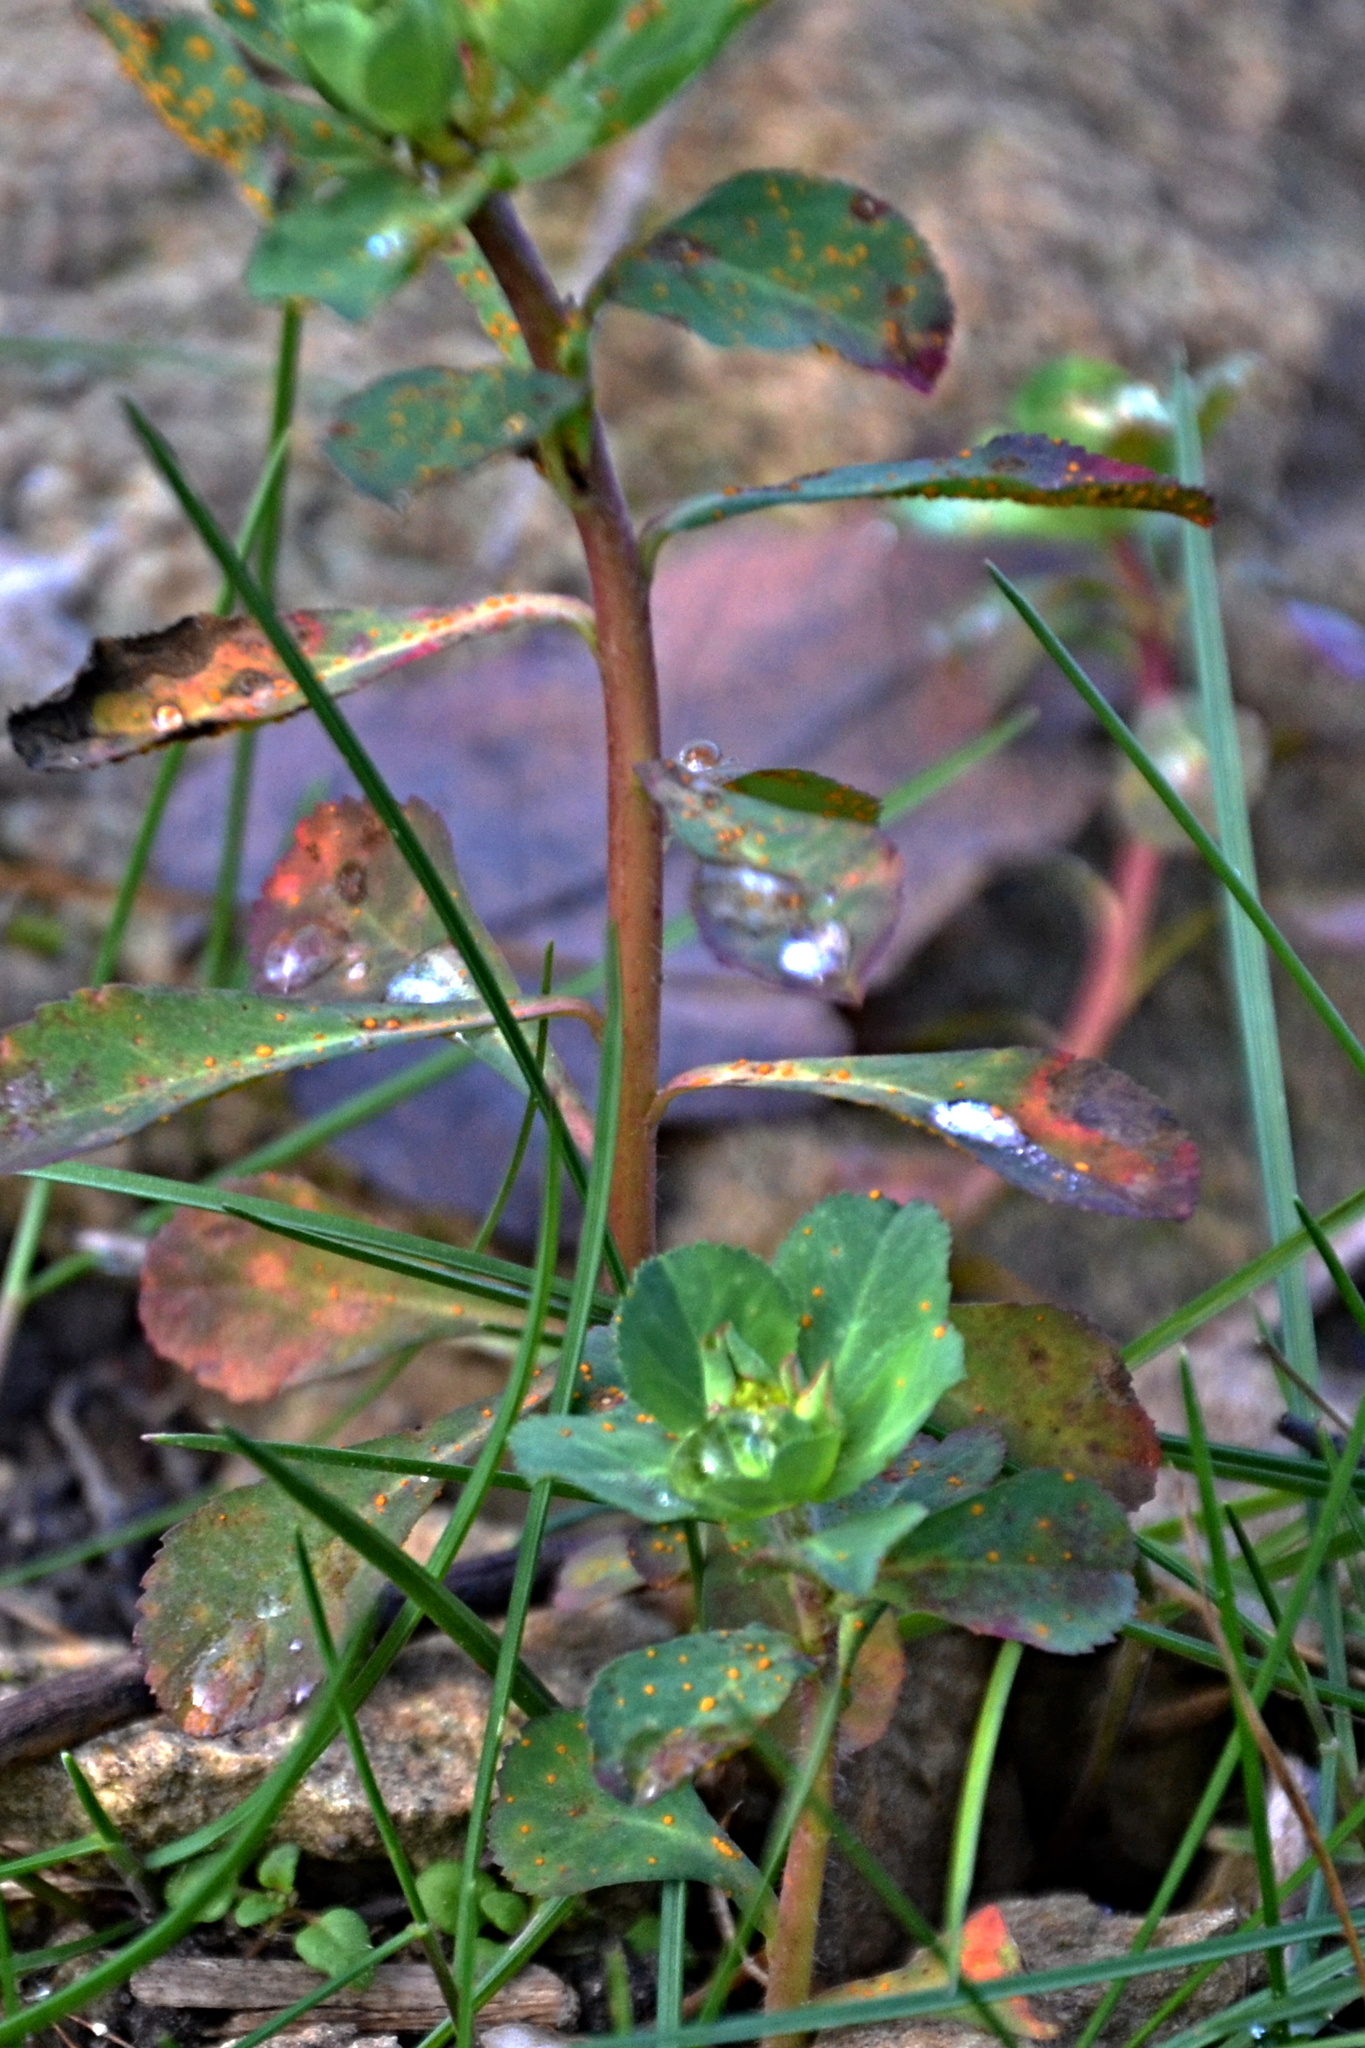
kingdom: Plantae
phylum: Tracheophyta
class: Magnoliopsida
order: Malpighiales
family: Euphorbiaceae
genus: Euphorbia
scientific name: Euphorbia helioscopia
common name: Sun spurge
